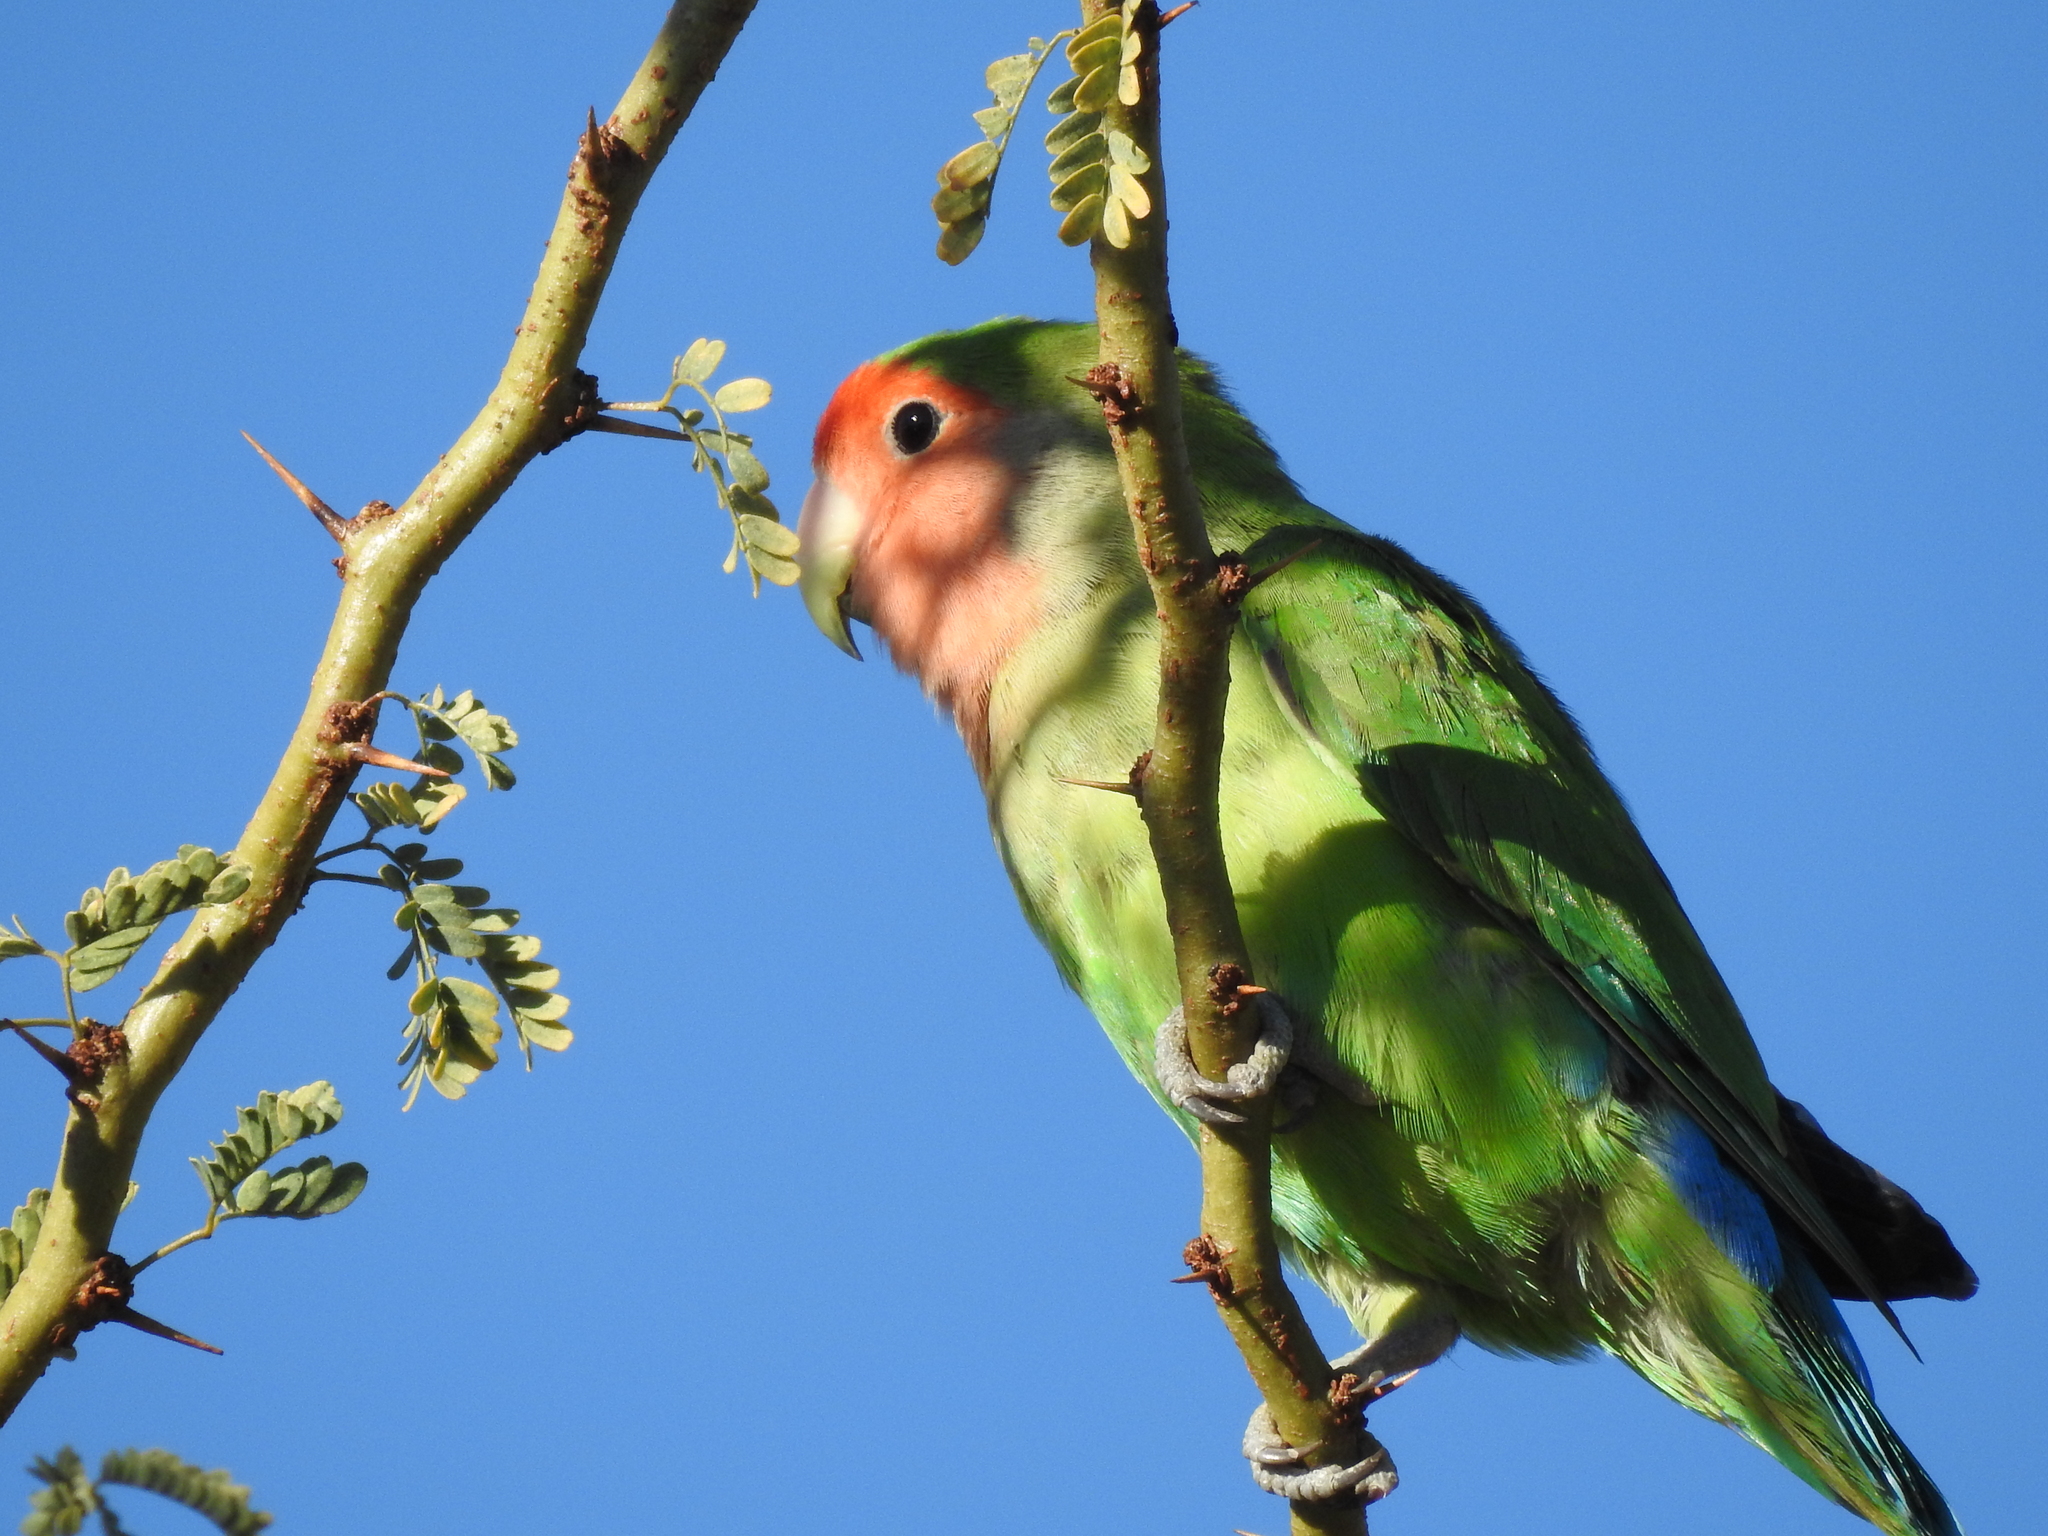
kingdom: Animalia
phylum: Chordata
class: Aves
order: Psittaciformes
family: Psittacidae
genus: Agapornis
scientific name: Agapornis roseicollis
